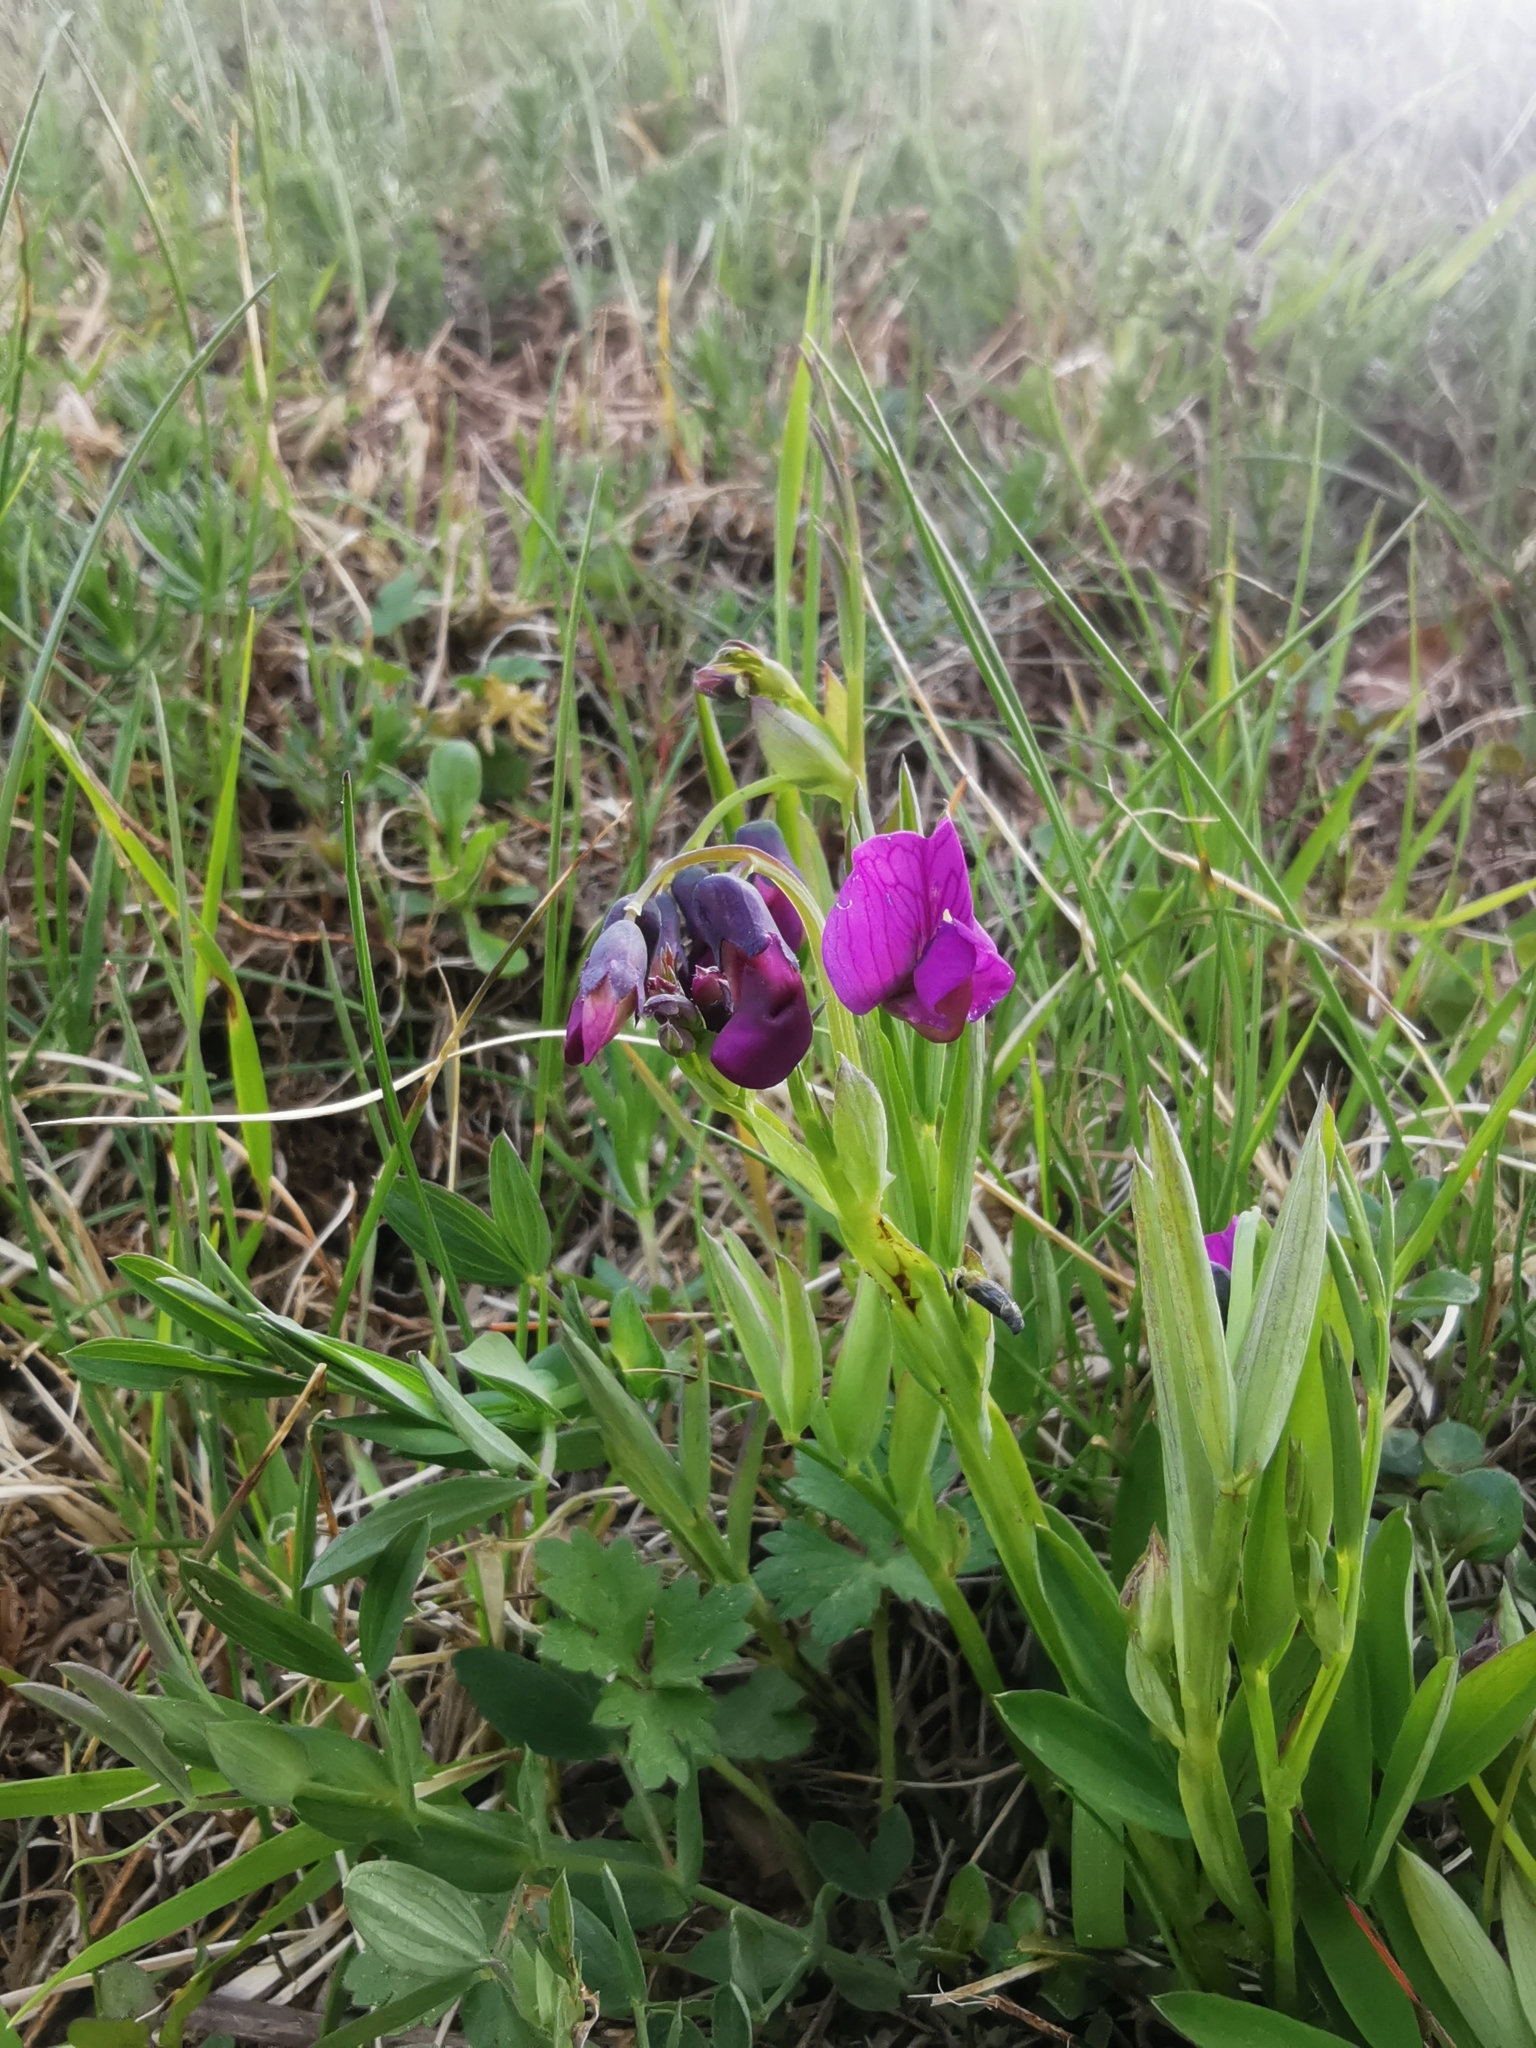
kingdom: Plantae
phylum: Tracheophyta
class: Magnoliopsida
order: Fabales
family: Fabaceae
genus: Lathyrus
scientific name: Lathyrus linifolius
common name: Bitter-vetch
